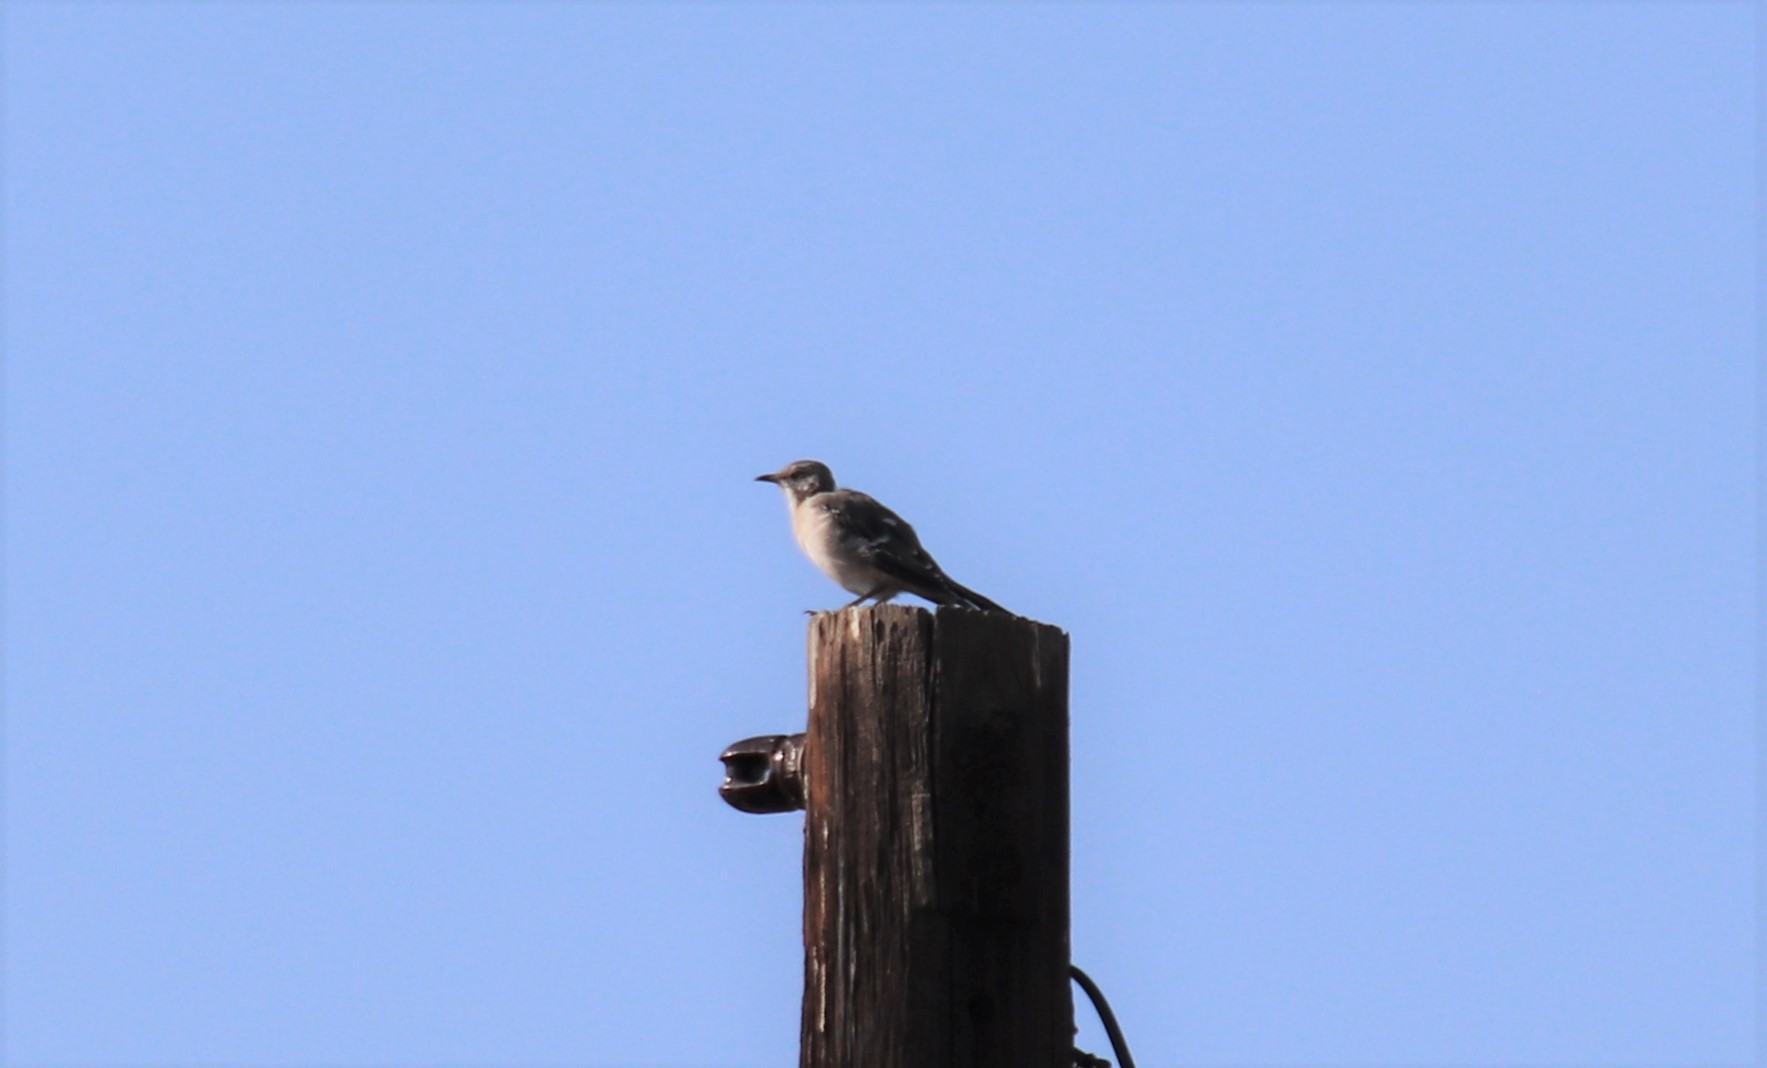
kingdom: Animalia
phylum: Chordata
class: Aves
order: Passeriformes
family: Mimidae
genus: Mimus
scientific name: Mimus polyglottos
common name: Northern mockingbird
